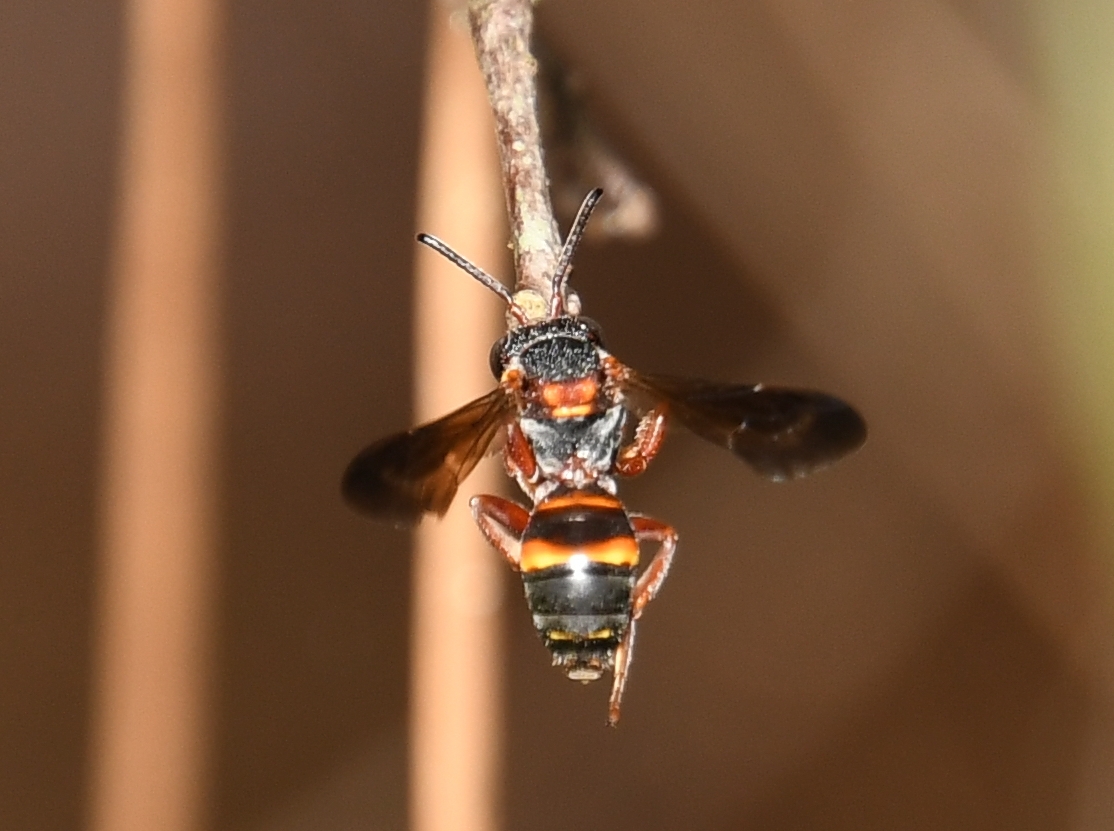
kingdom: Animalia
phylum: Arthropoda
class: Insecta
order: Hymenoptera
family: Apidae
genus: Nomada
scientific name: Nomada fervida
